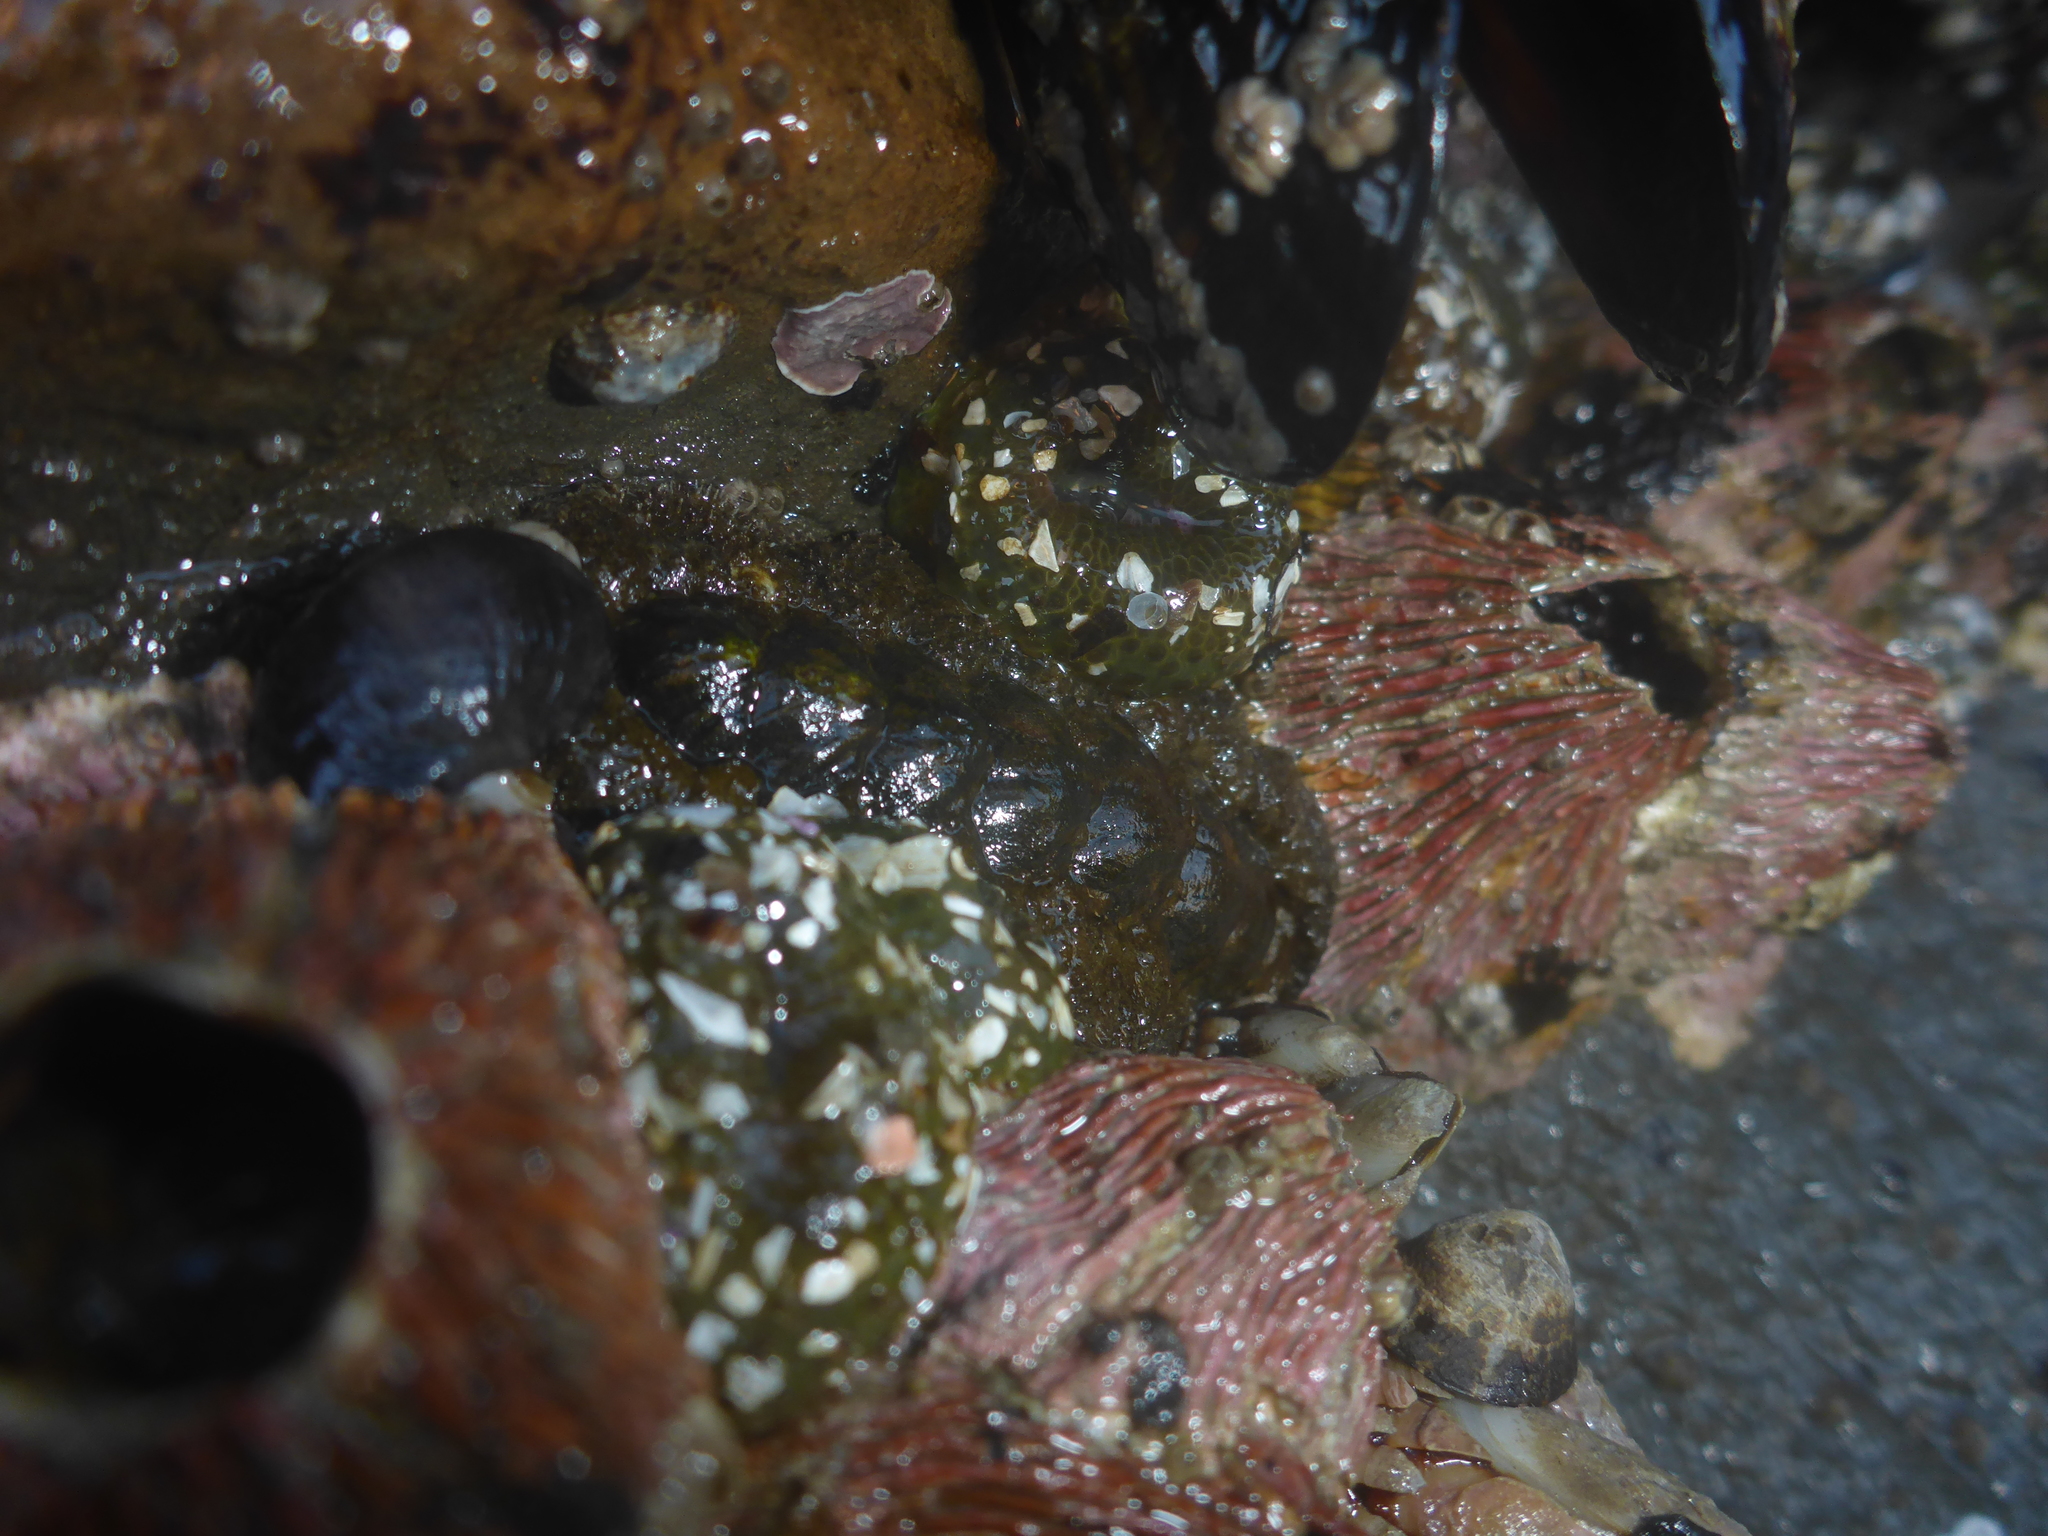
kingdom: Animalia
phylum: Mollusca
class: Polyplacophora
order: Chitonida
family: Tonicellidae
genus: Nuttallina
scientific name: Nuttallina californica
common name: California nuttall chiton
